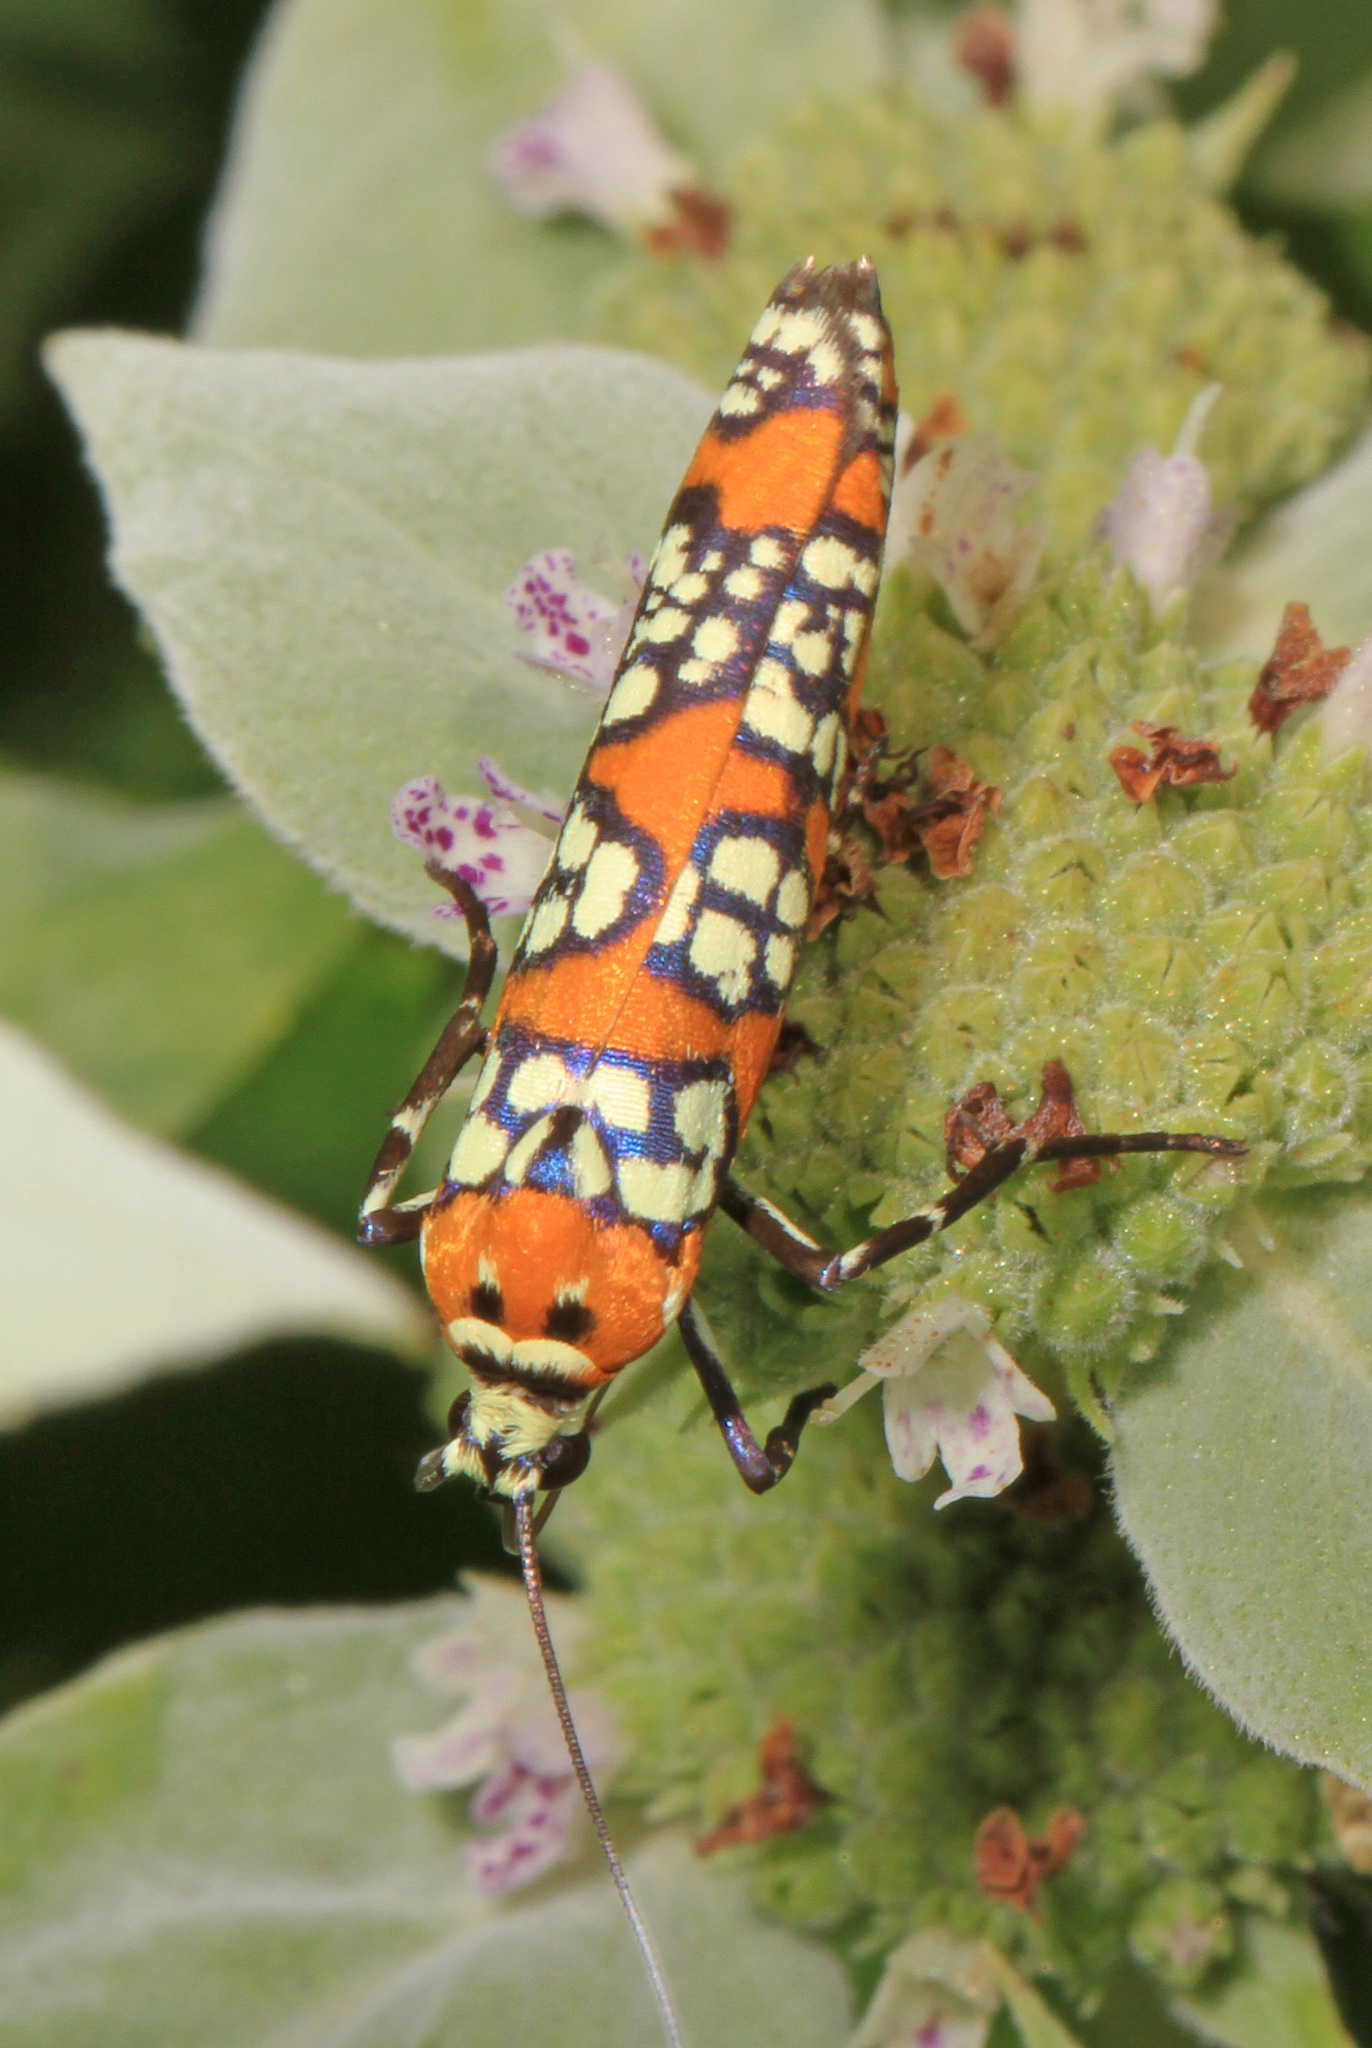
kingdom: Animalia
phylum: Arthropoda
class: Insecta
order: Lepidoptera
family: Attevidae
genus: Atteva
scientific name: Atteva punctella
